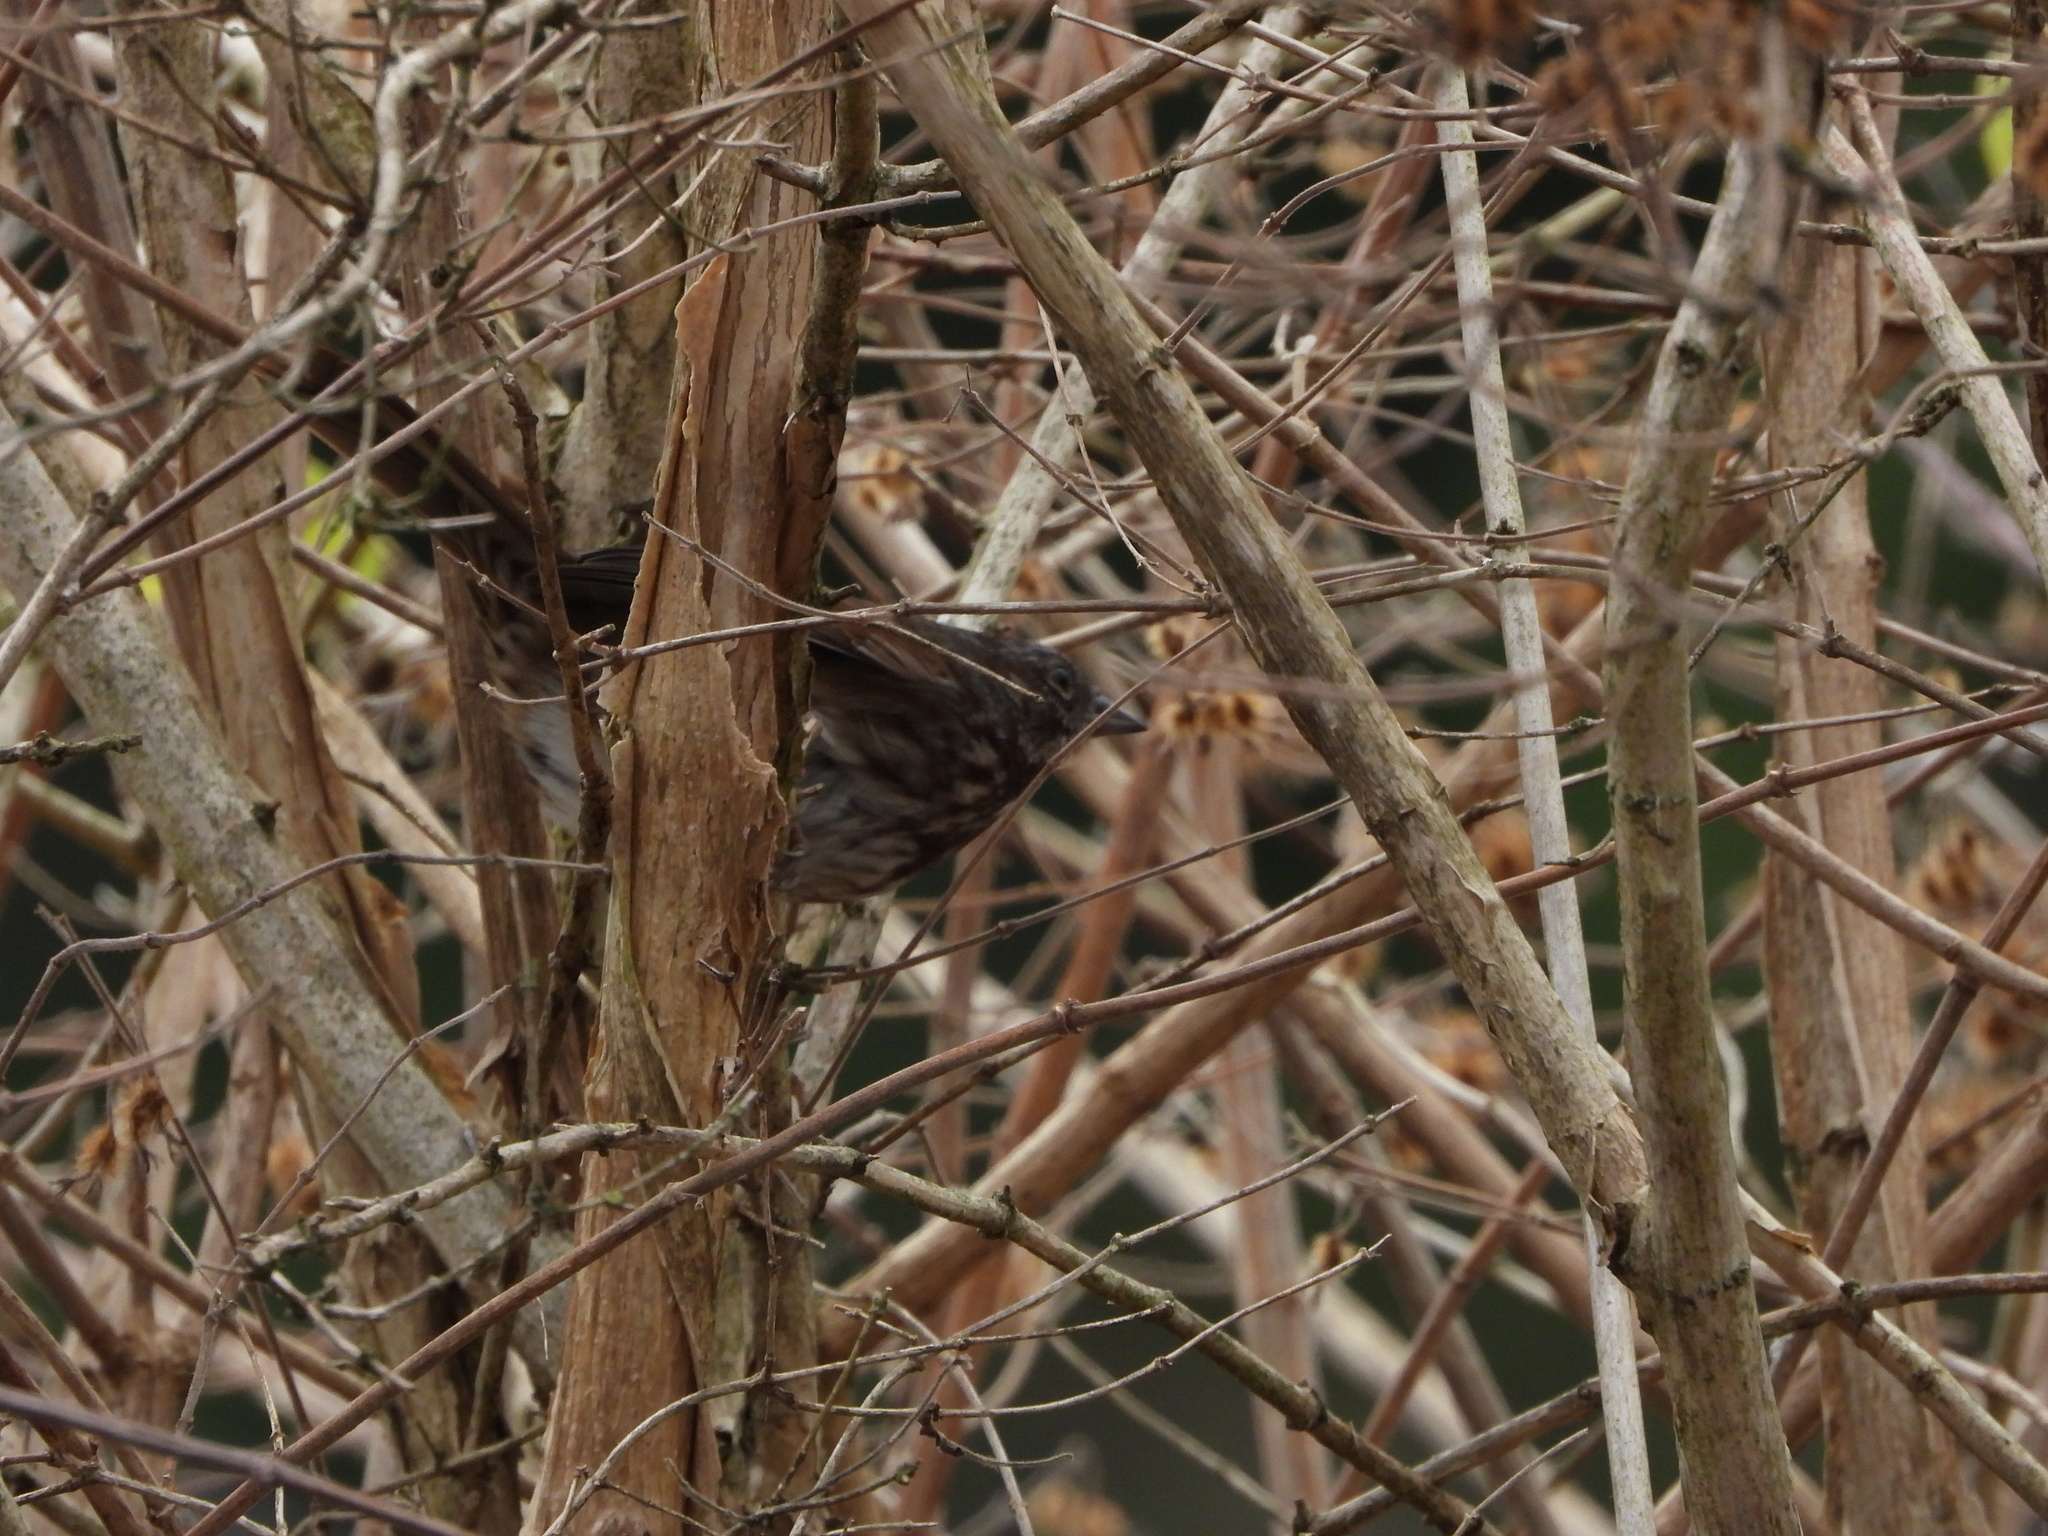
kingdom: Animalia
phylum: Chordata
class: Aves
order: Passeriformes
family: Passerellidae
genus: Melospiza
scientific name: Melospiza melodia
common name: Song sparrow
